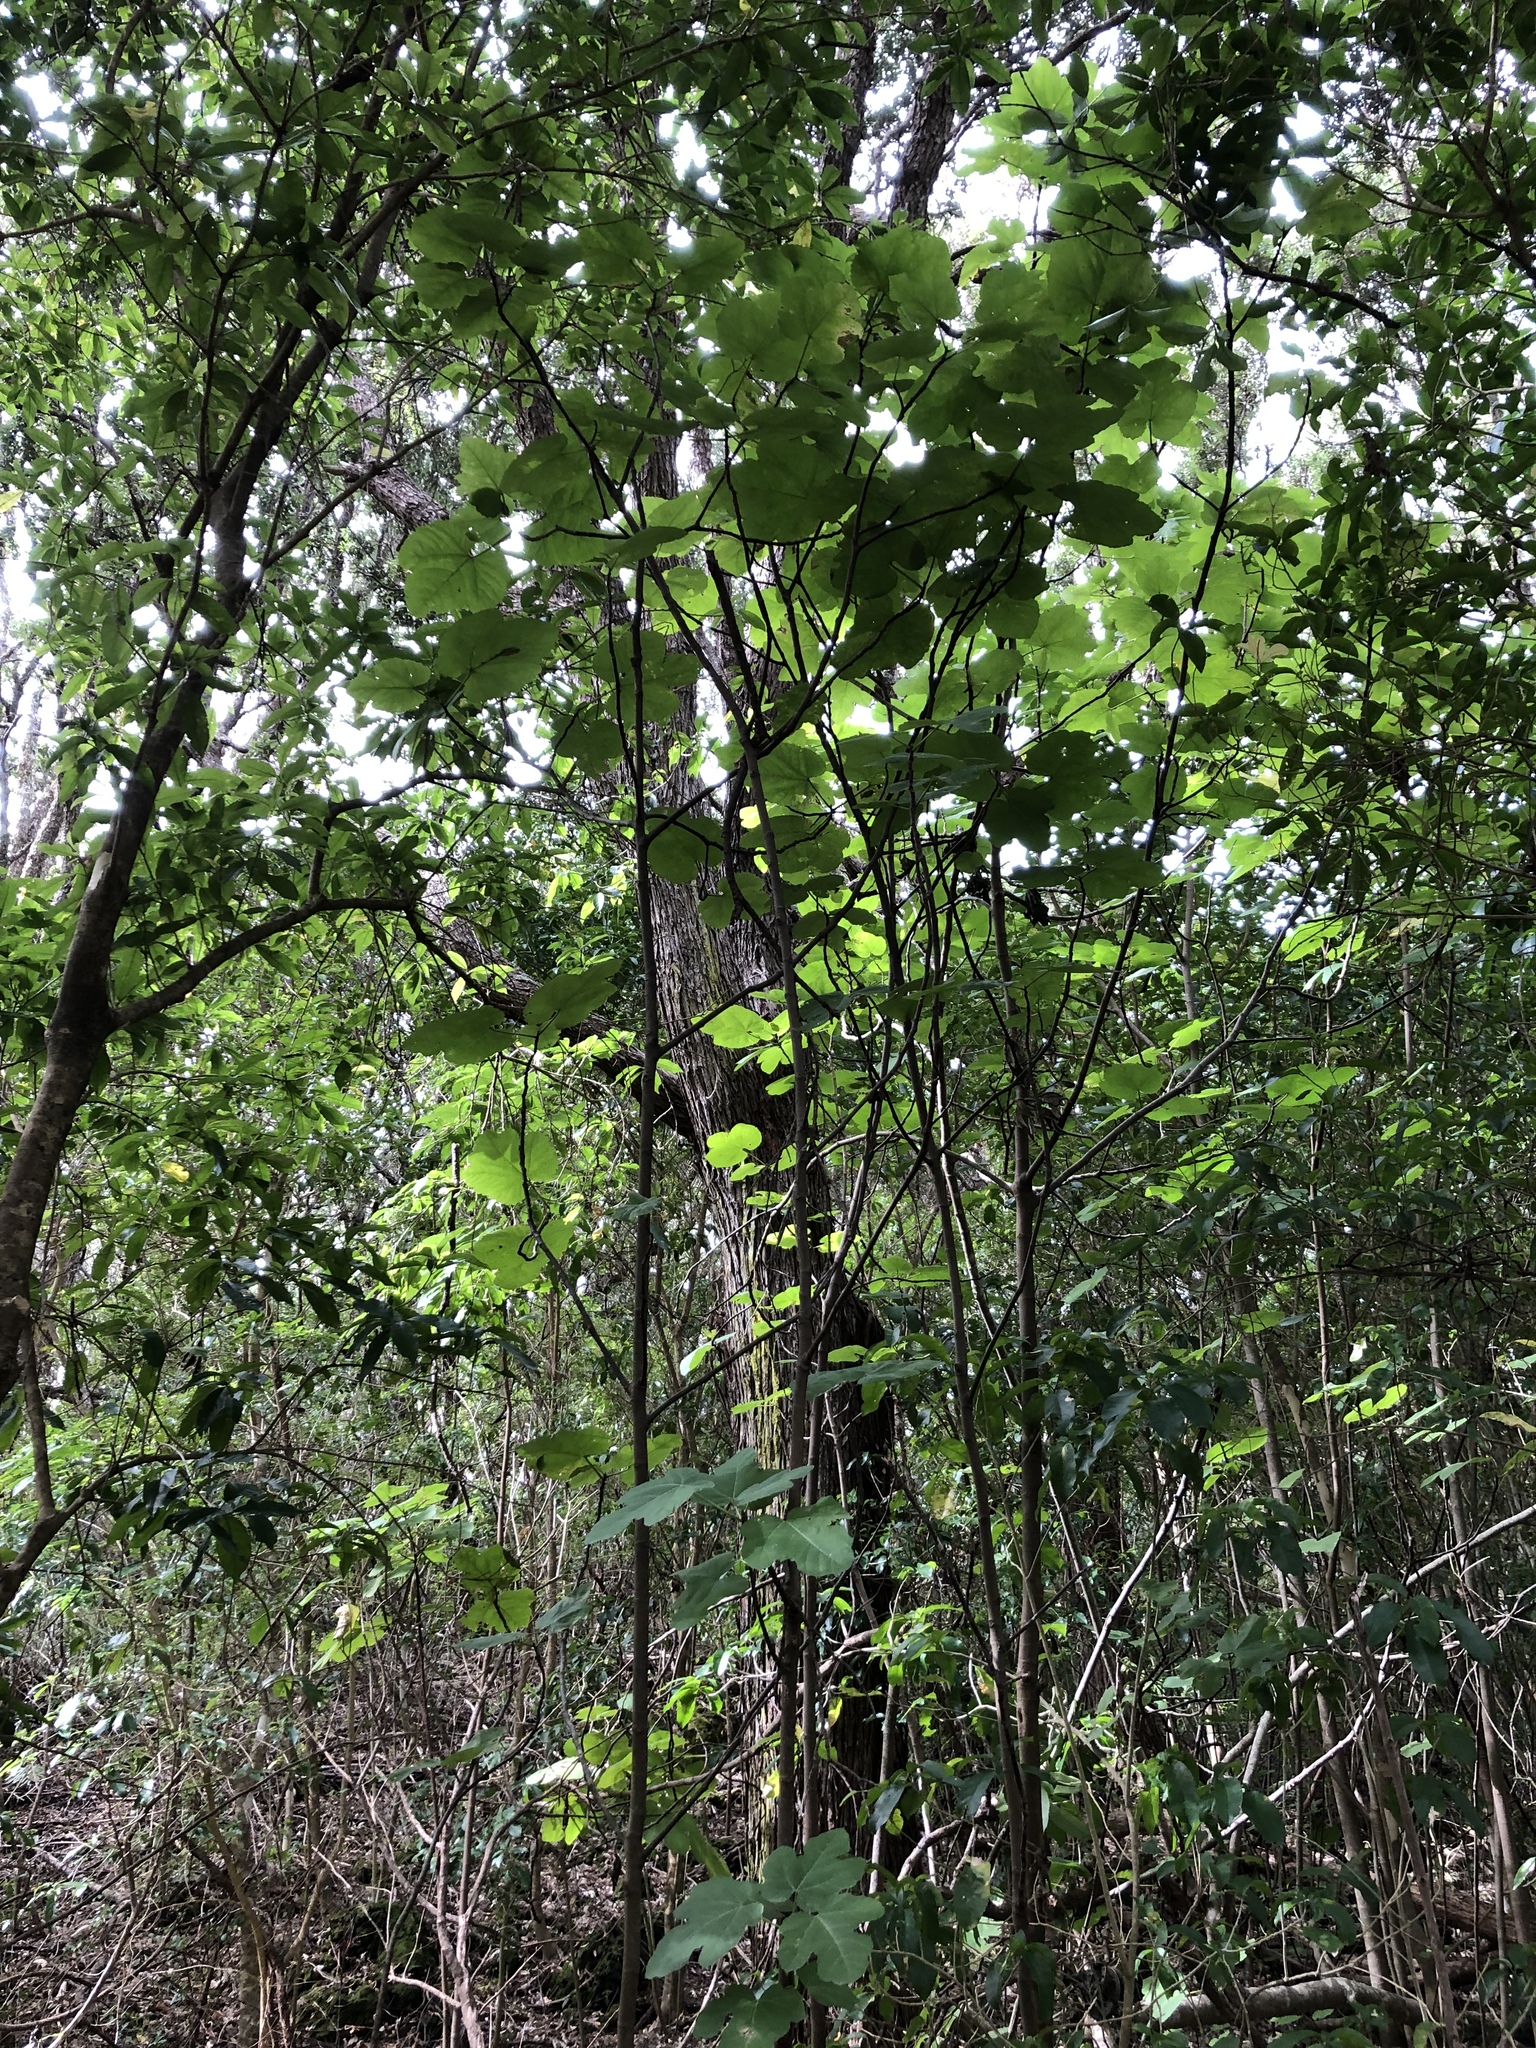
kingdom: Plantae
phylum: Tracheophyta
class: Magnoliopsida
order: Rosales
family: Moraceae
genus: Ficus
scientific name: Ficus carica
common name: Fig
